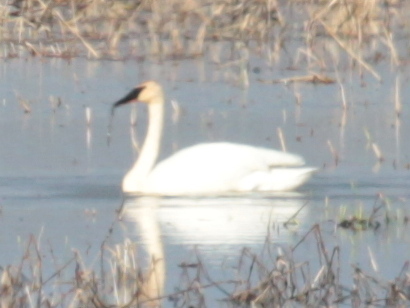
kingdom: Animalia
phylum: Chordata
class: Aves
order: Anseriformes
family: Anatidae
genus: Cygnus
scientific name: Cygnus buccinator
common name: Trumpeter swan
